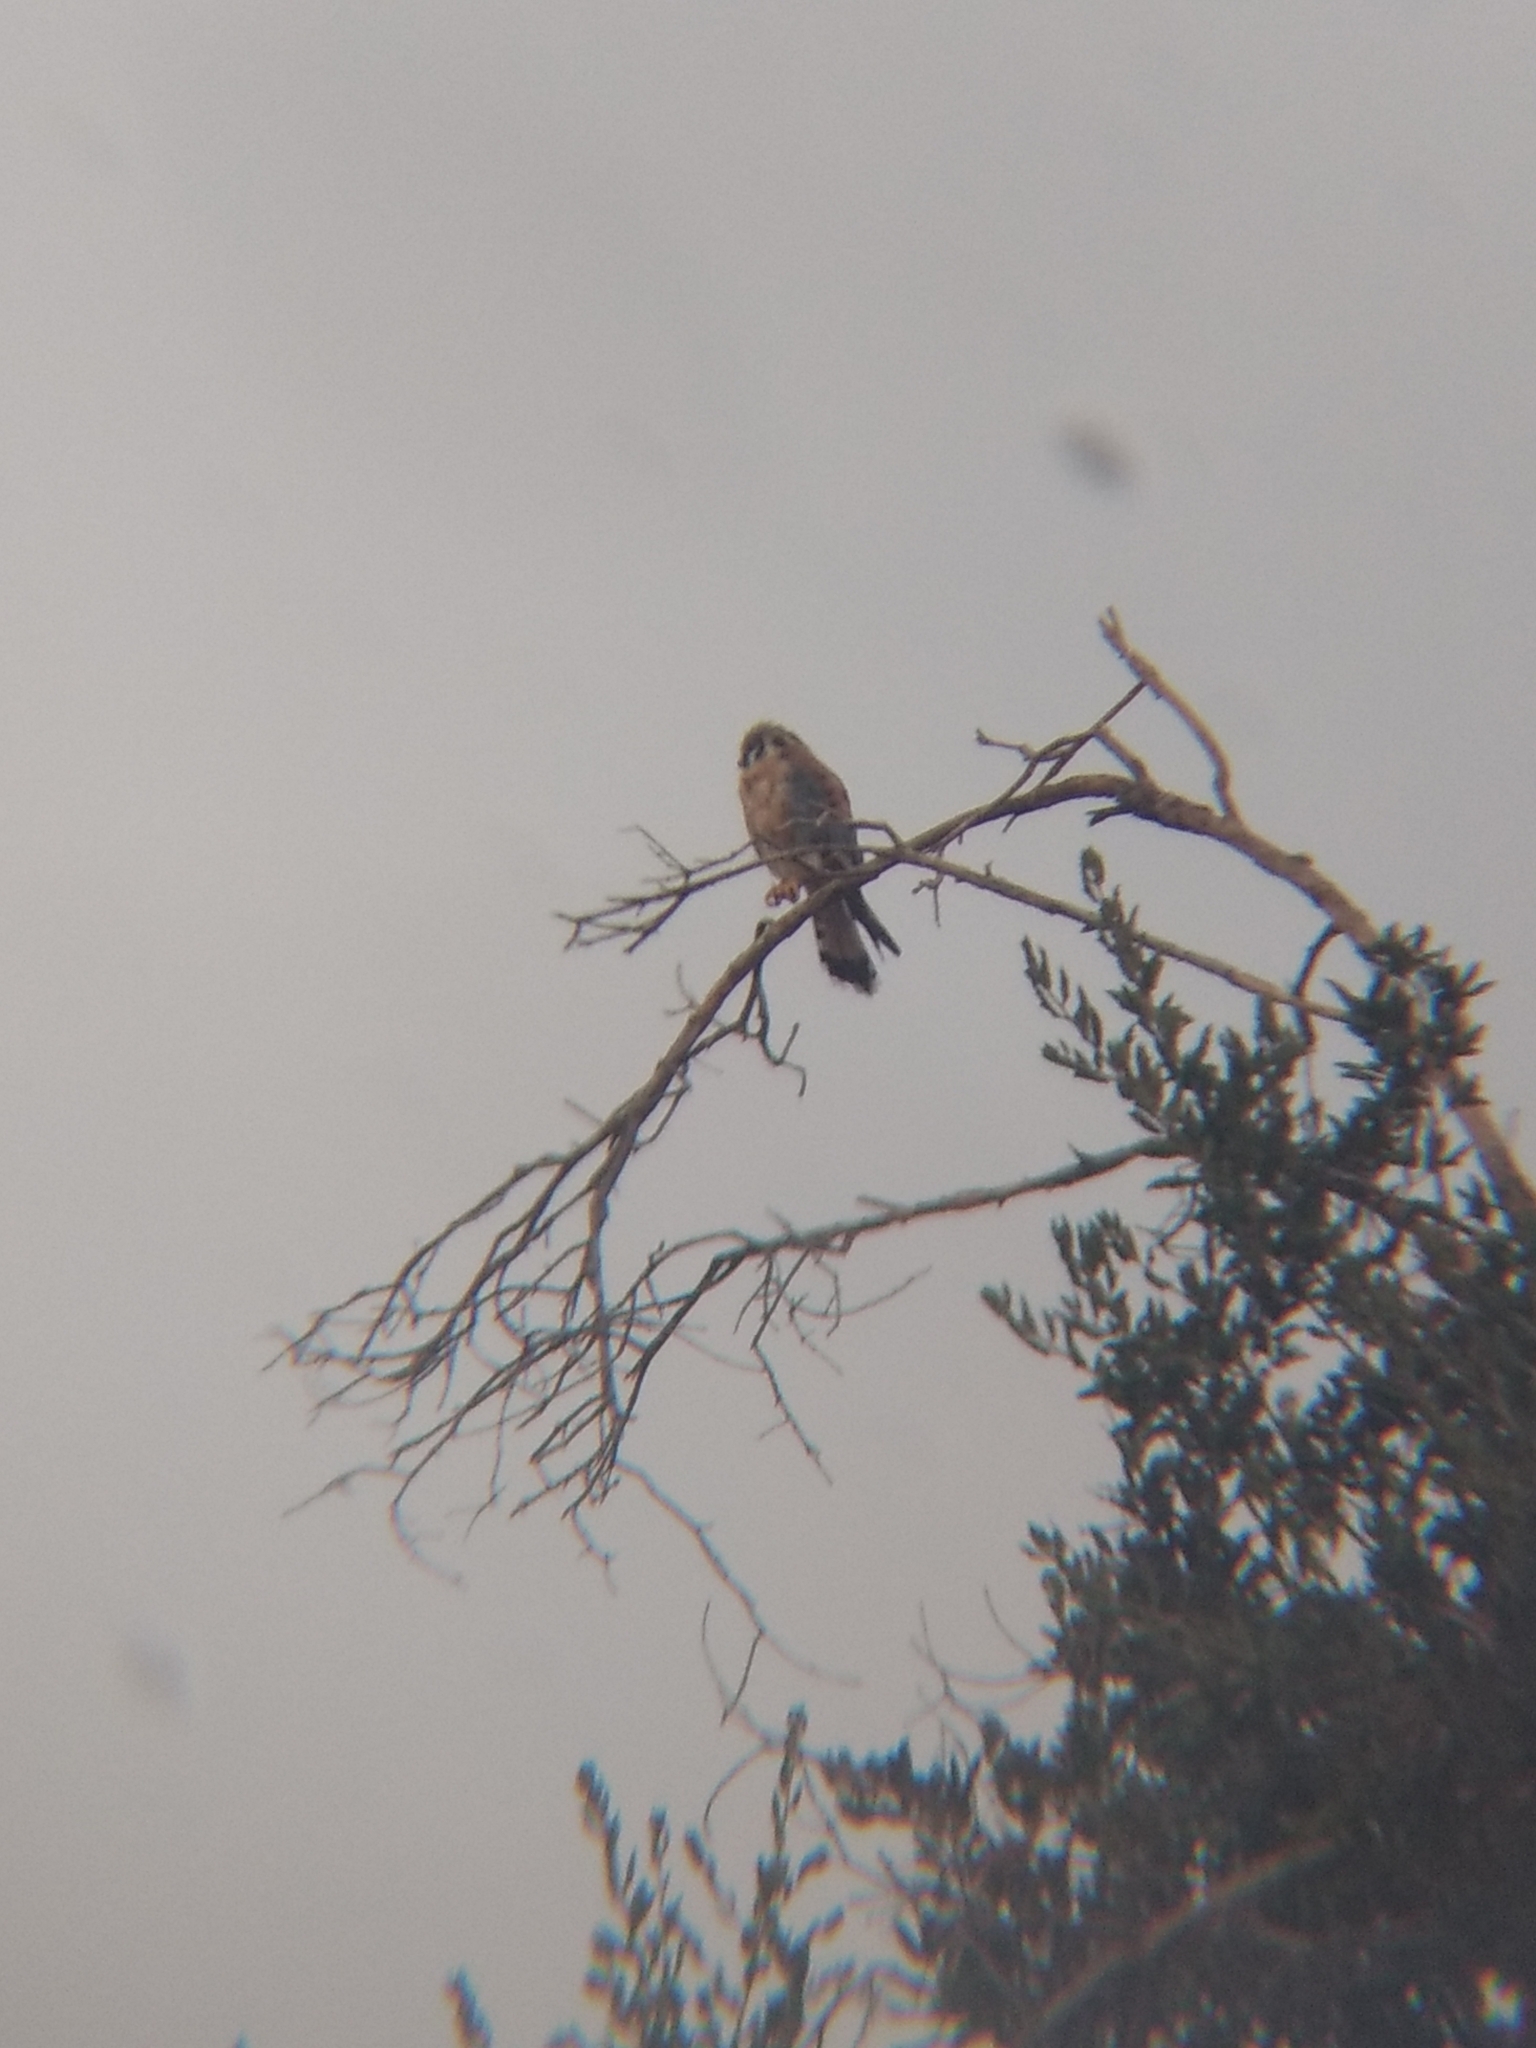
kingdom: Animalia
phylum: Chordata
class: Aves
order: Falconiformes
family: Falconidae
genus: Falco
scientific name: Falco sparverius
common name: American kestrel
